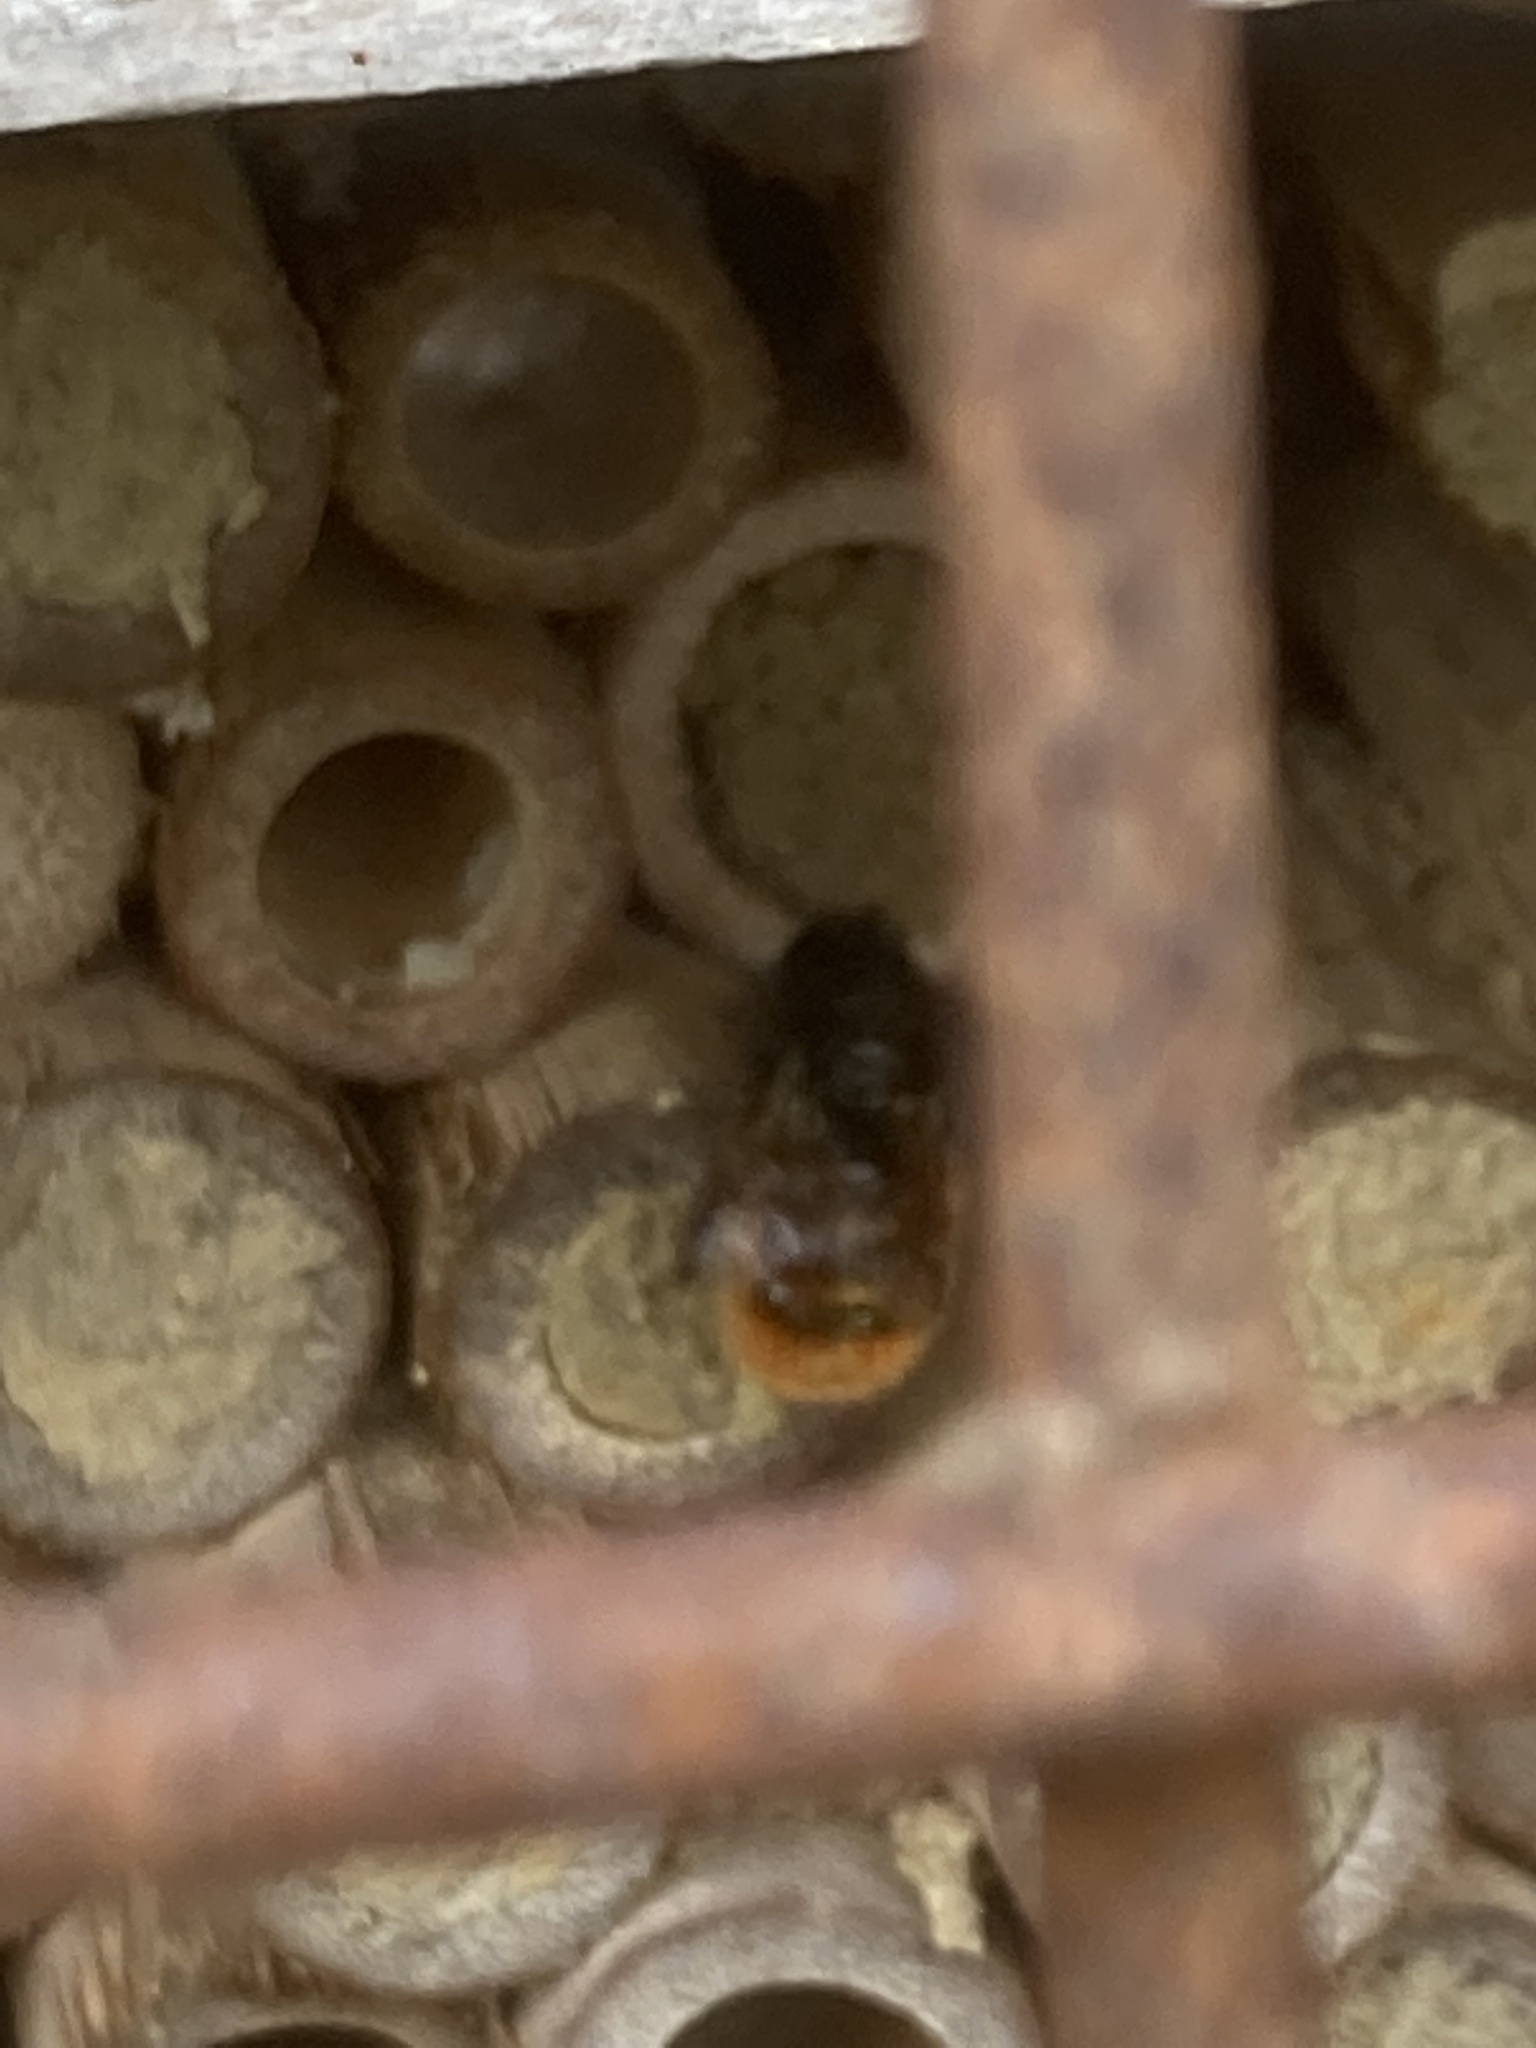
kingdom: Animalia
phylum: Arthropoda
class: Insecta
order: Hymenoptera
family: Megachilidae
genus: Osmia
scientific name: Osmia cornuta
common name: Mason bee
